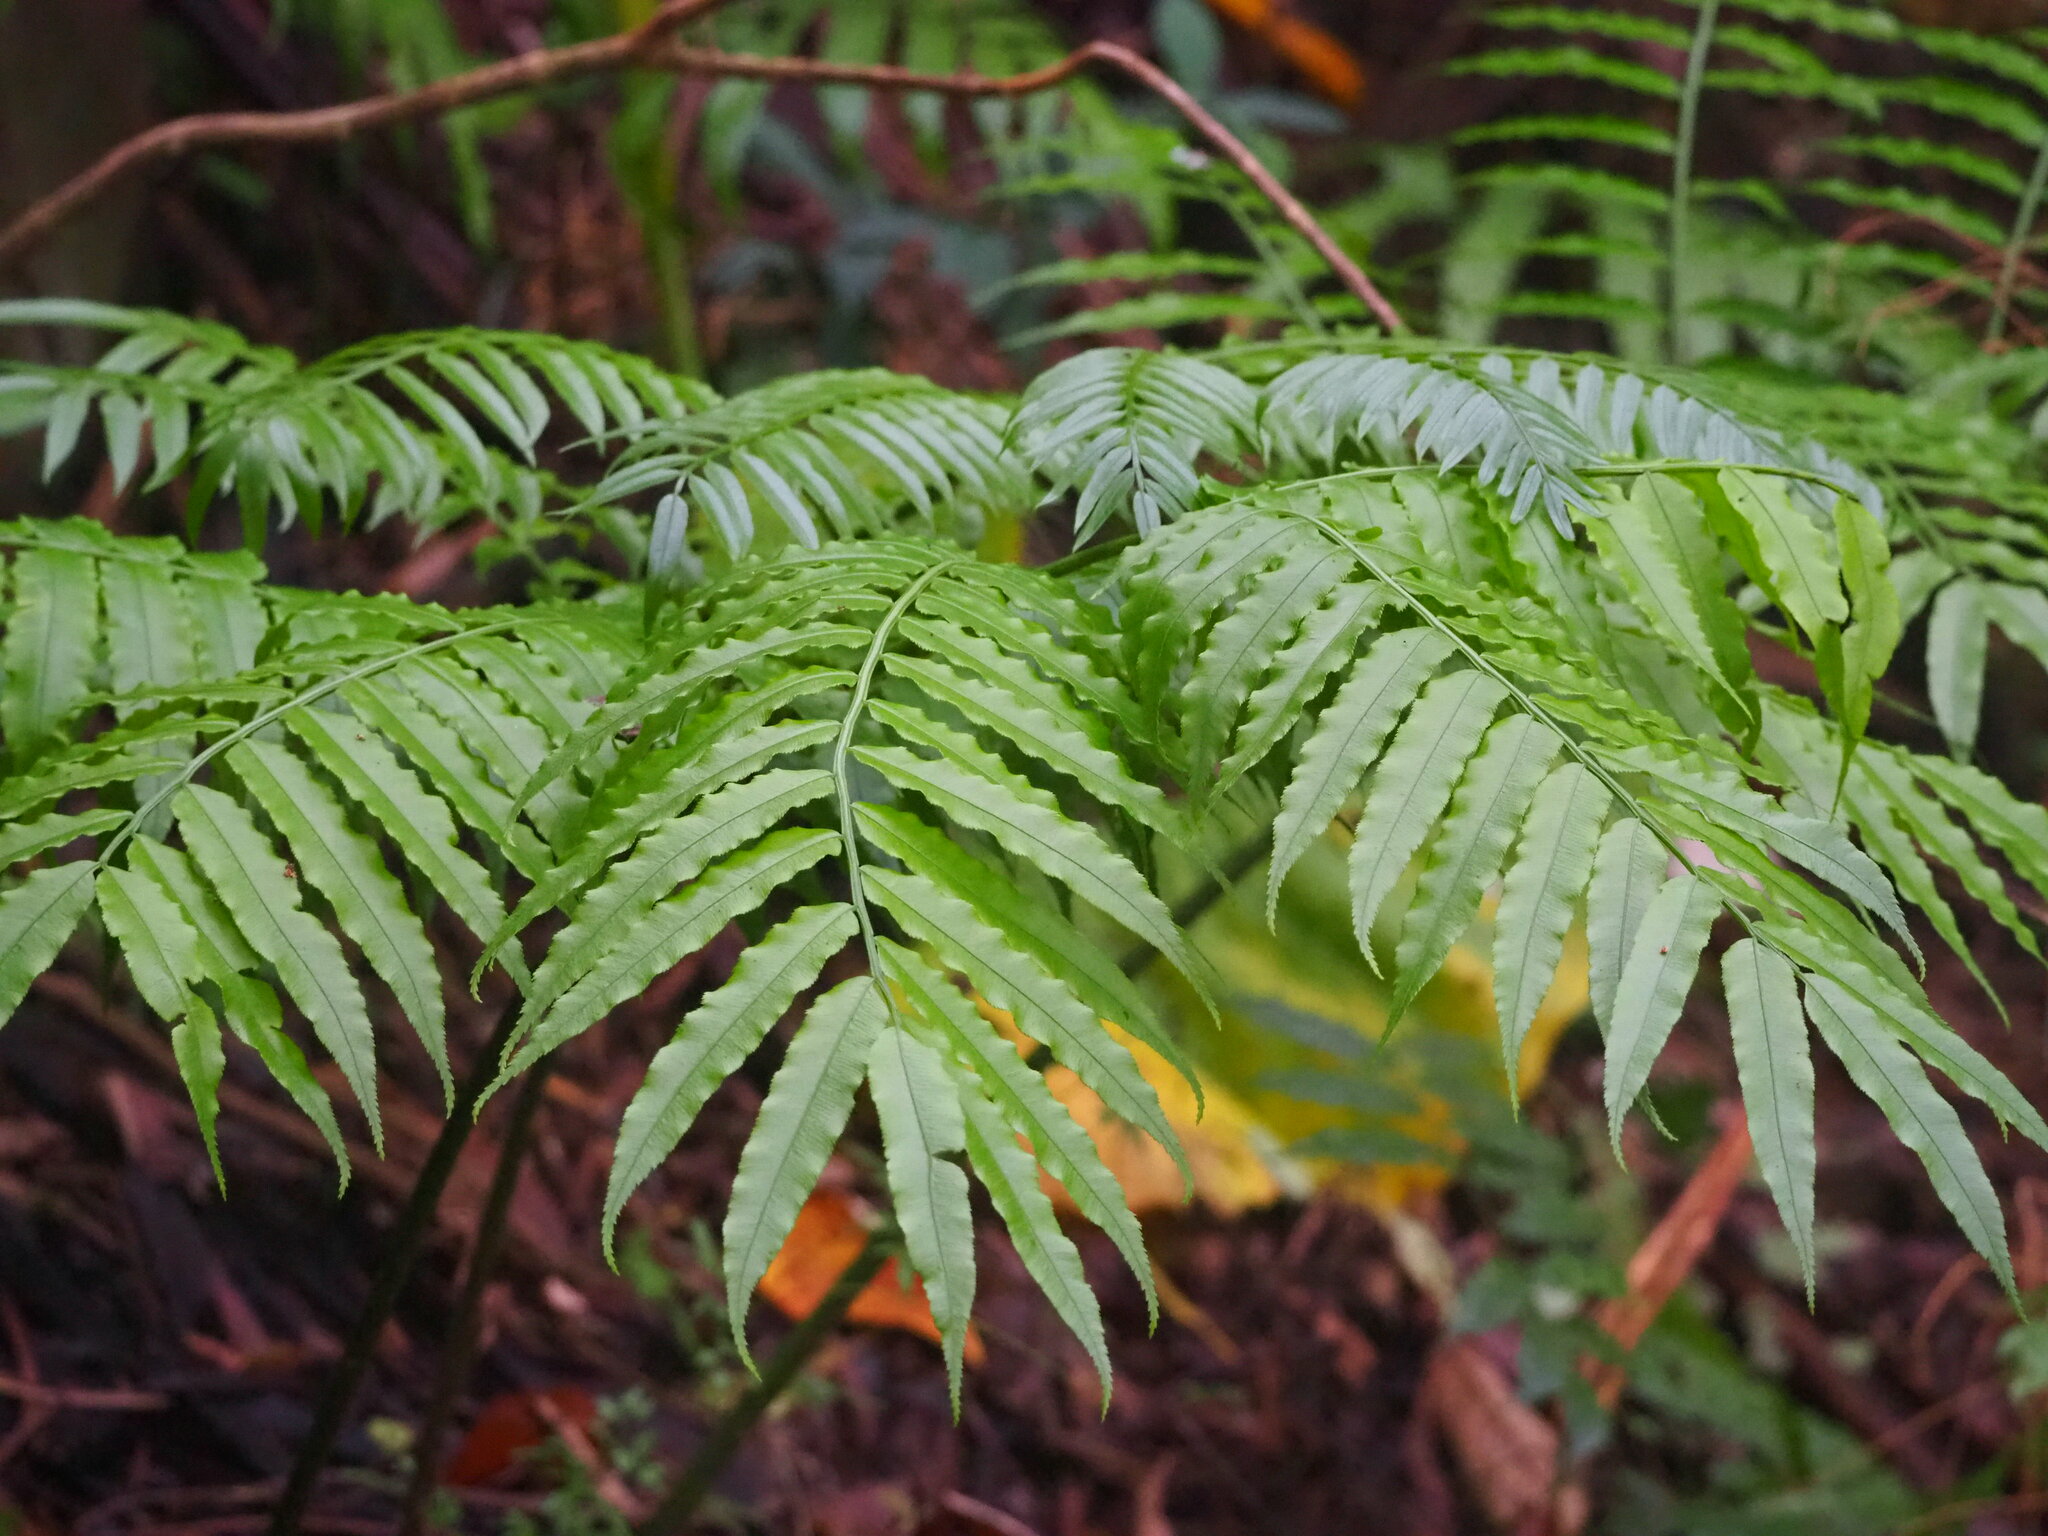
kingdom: Plantae
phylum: Tracheophyta
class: Polypodiopsida
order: Marattiales
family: Marattiaceae
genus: Angiopteris
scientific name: Angiopteris lygodiifolia
